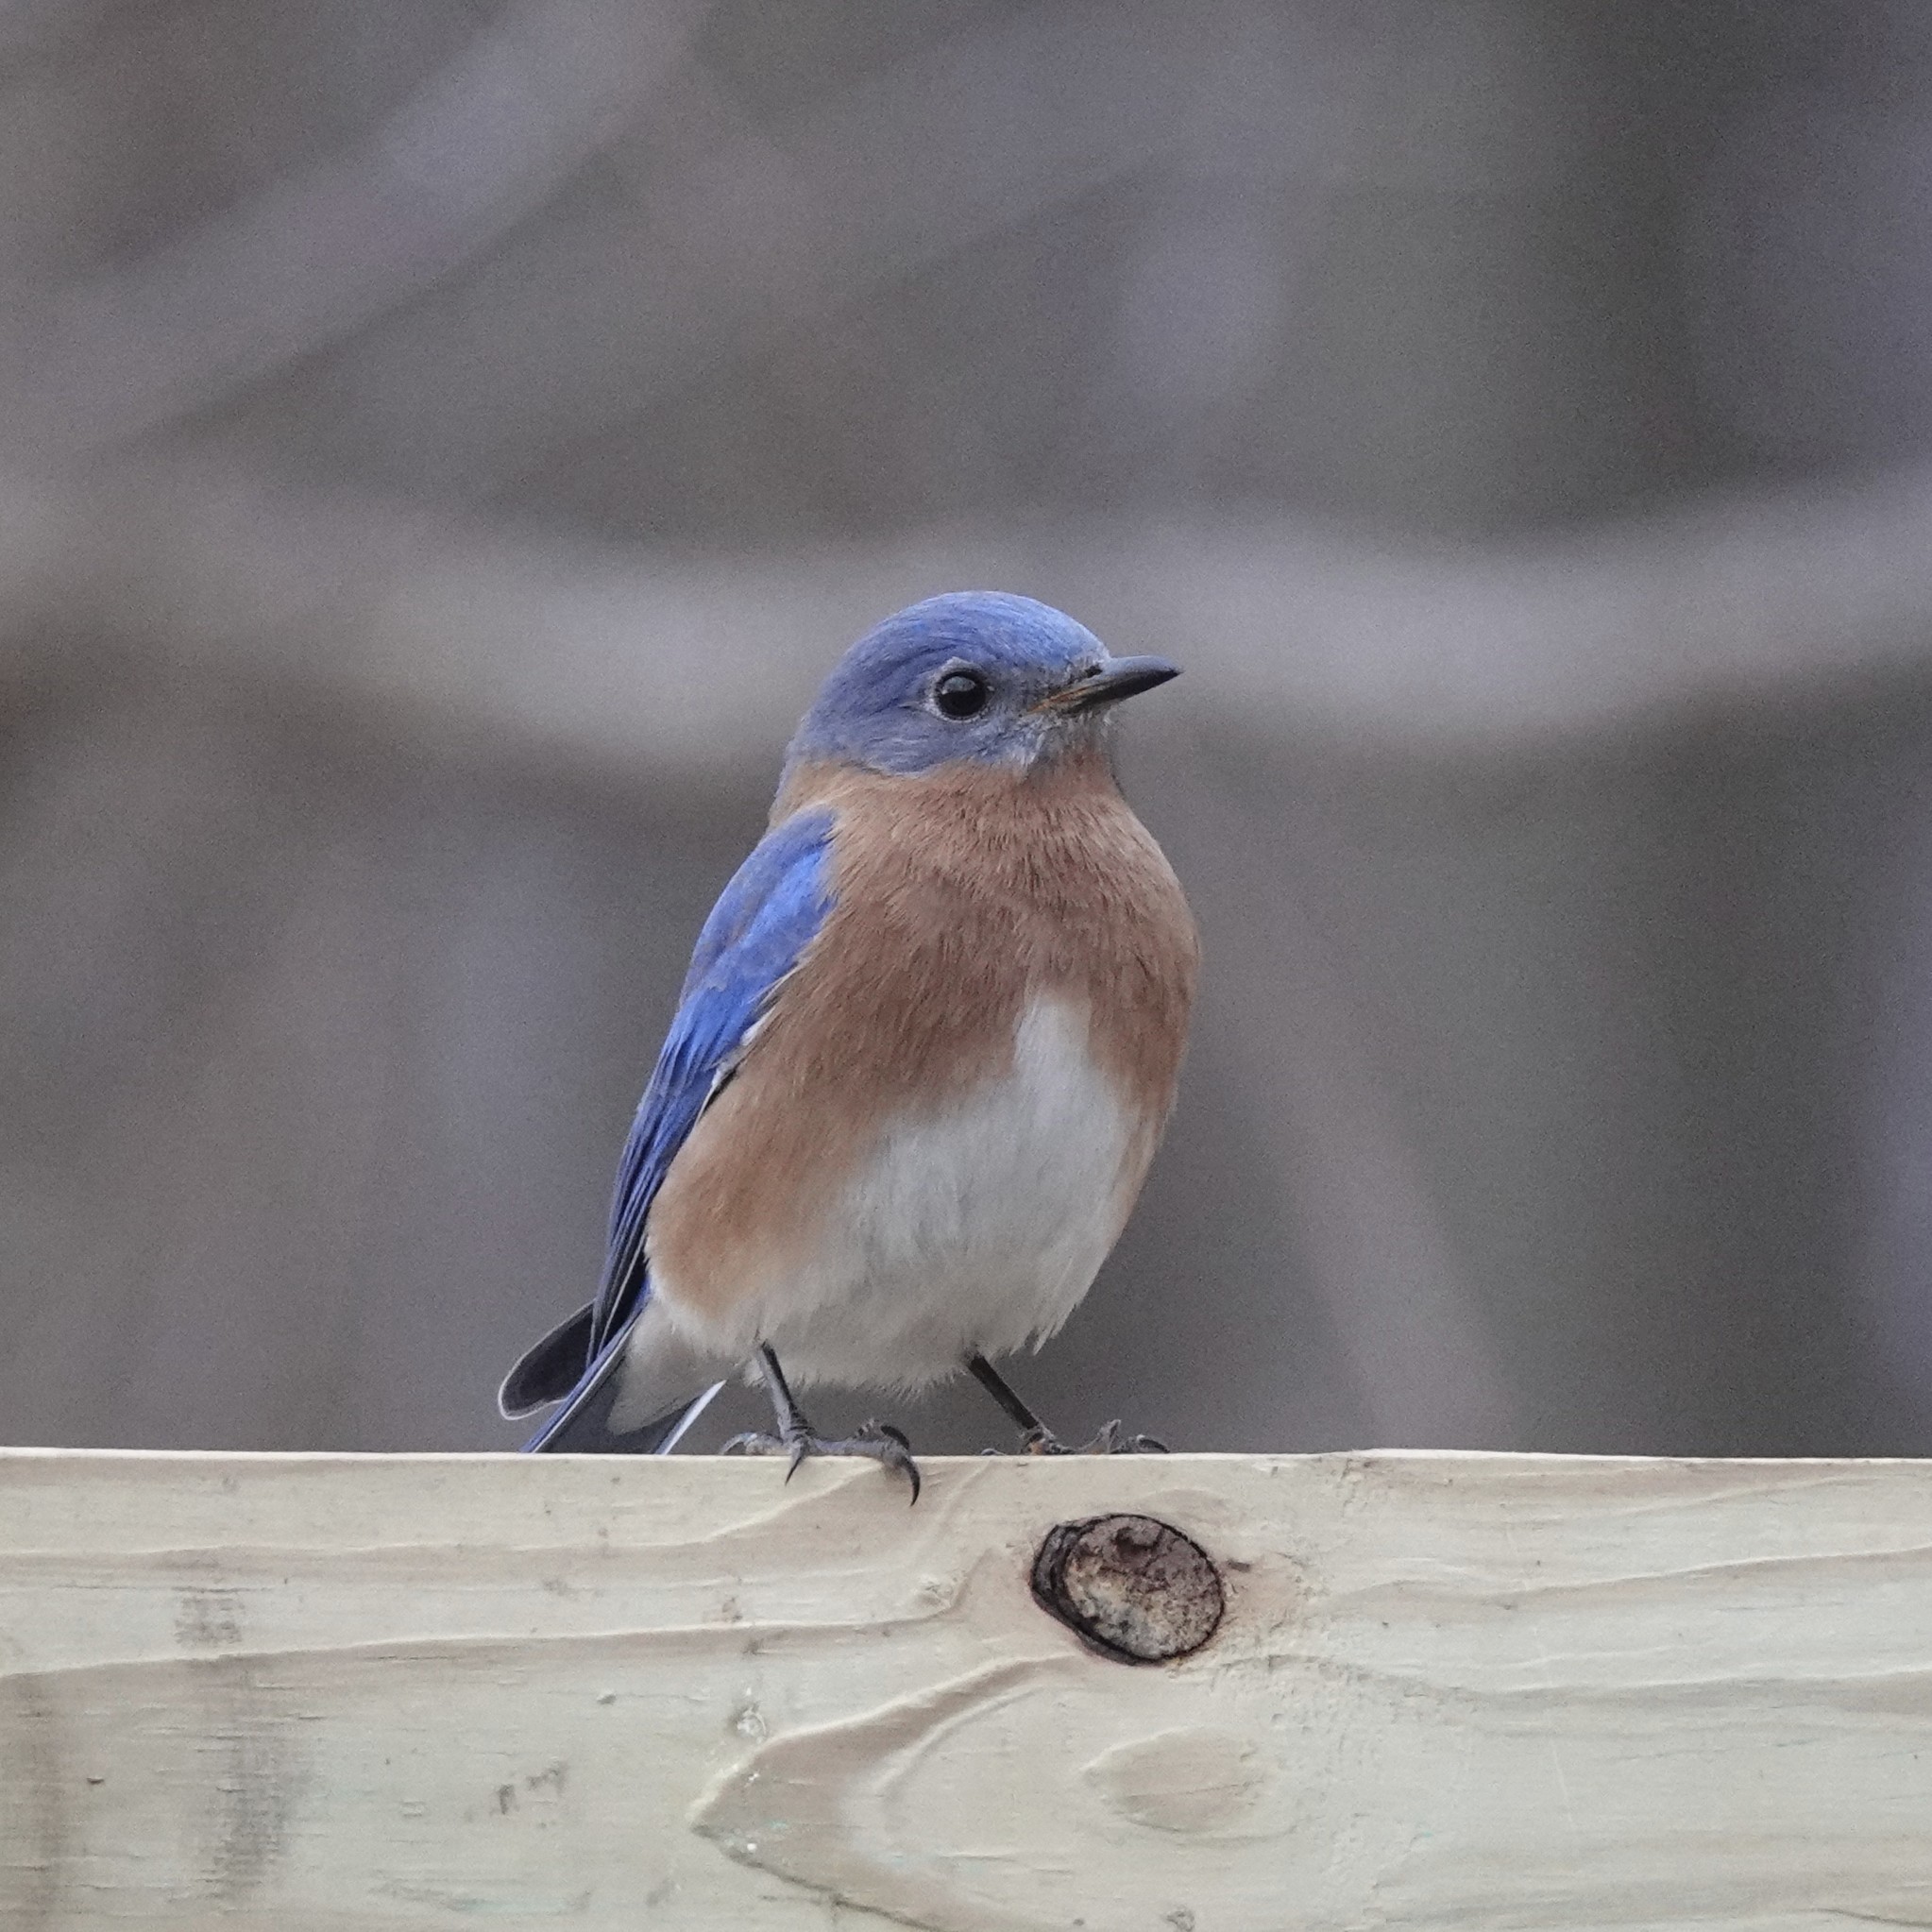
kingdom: Animalia
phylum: Chordata
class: Aves
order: Passeriformes
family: Turdidae
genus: Sialia
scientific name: Sialia sialis
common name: Eastern bluebird
